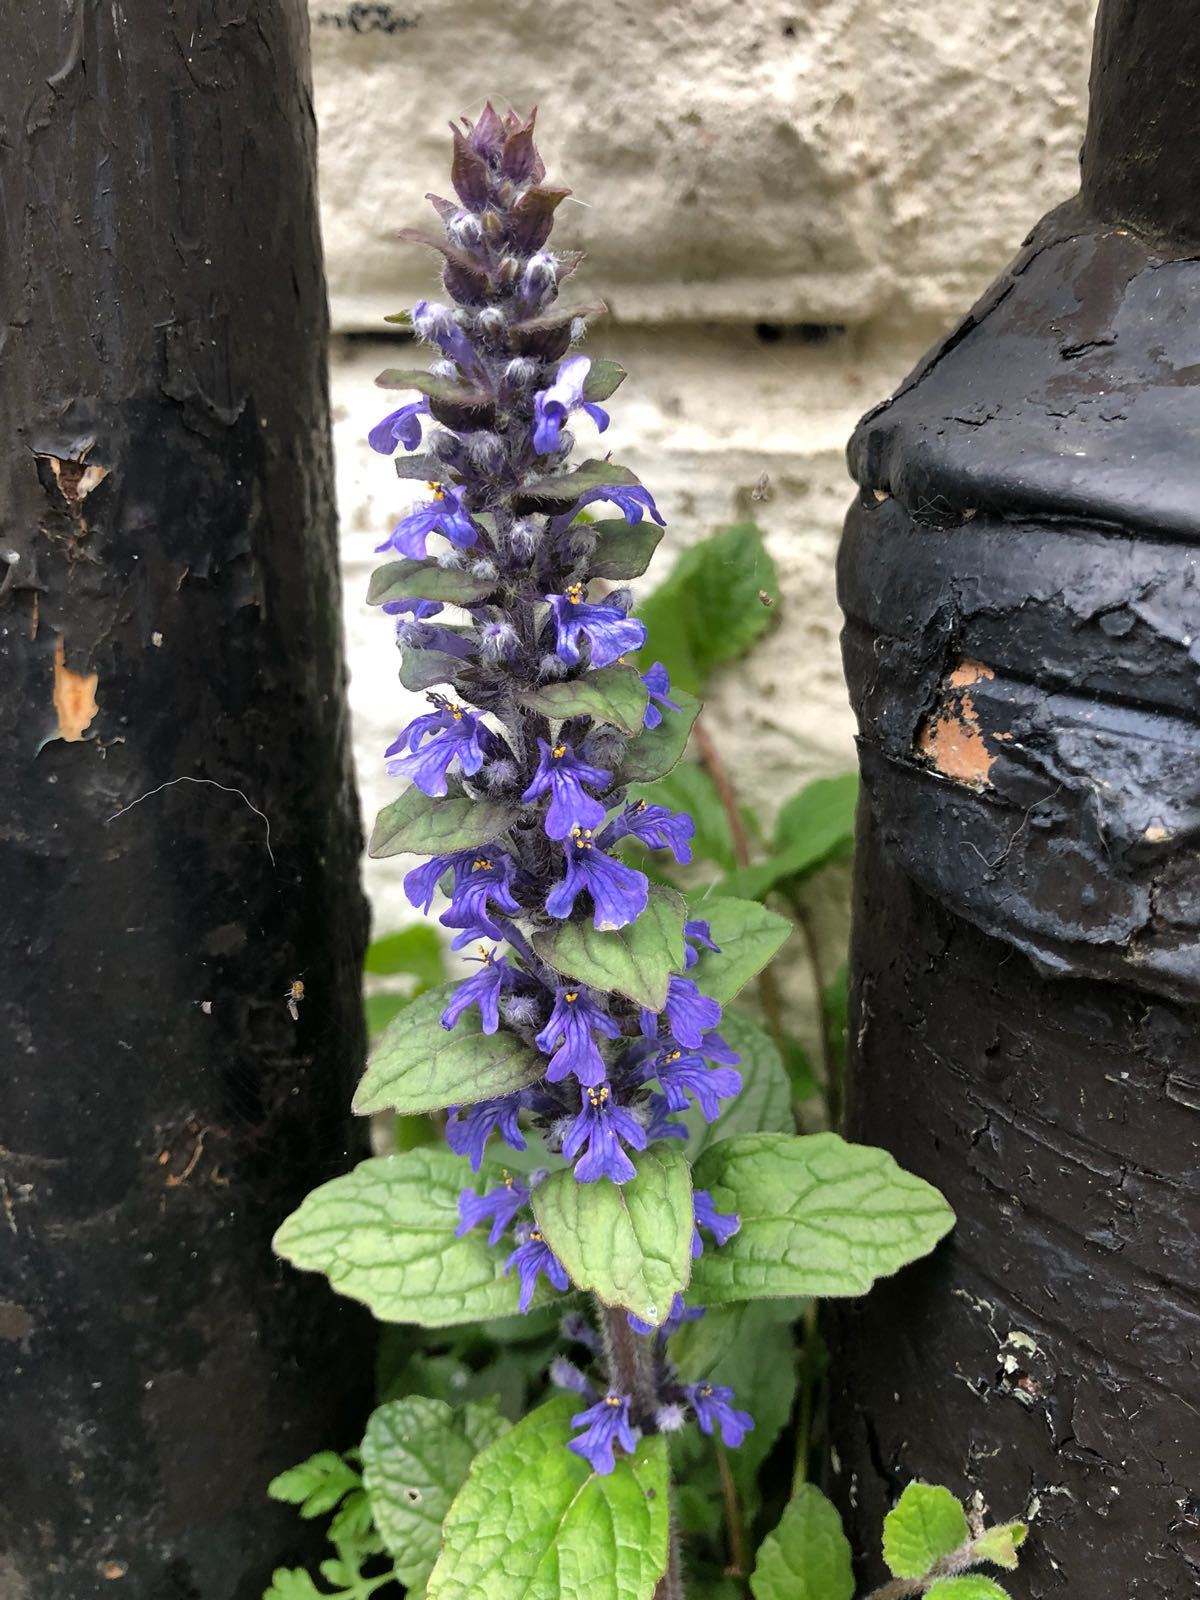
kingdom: Plantae
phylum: Tracheophyta
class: Magnoliopsida
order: Lamiales
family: Lamiaceae
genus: Ajuga
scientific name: Ajuga reptans
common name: Bugle
